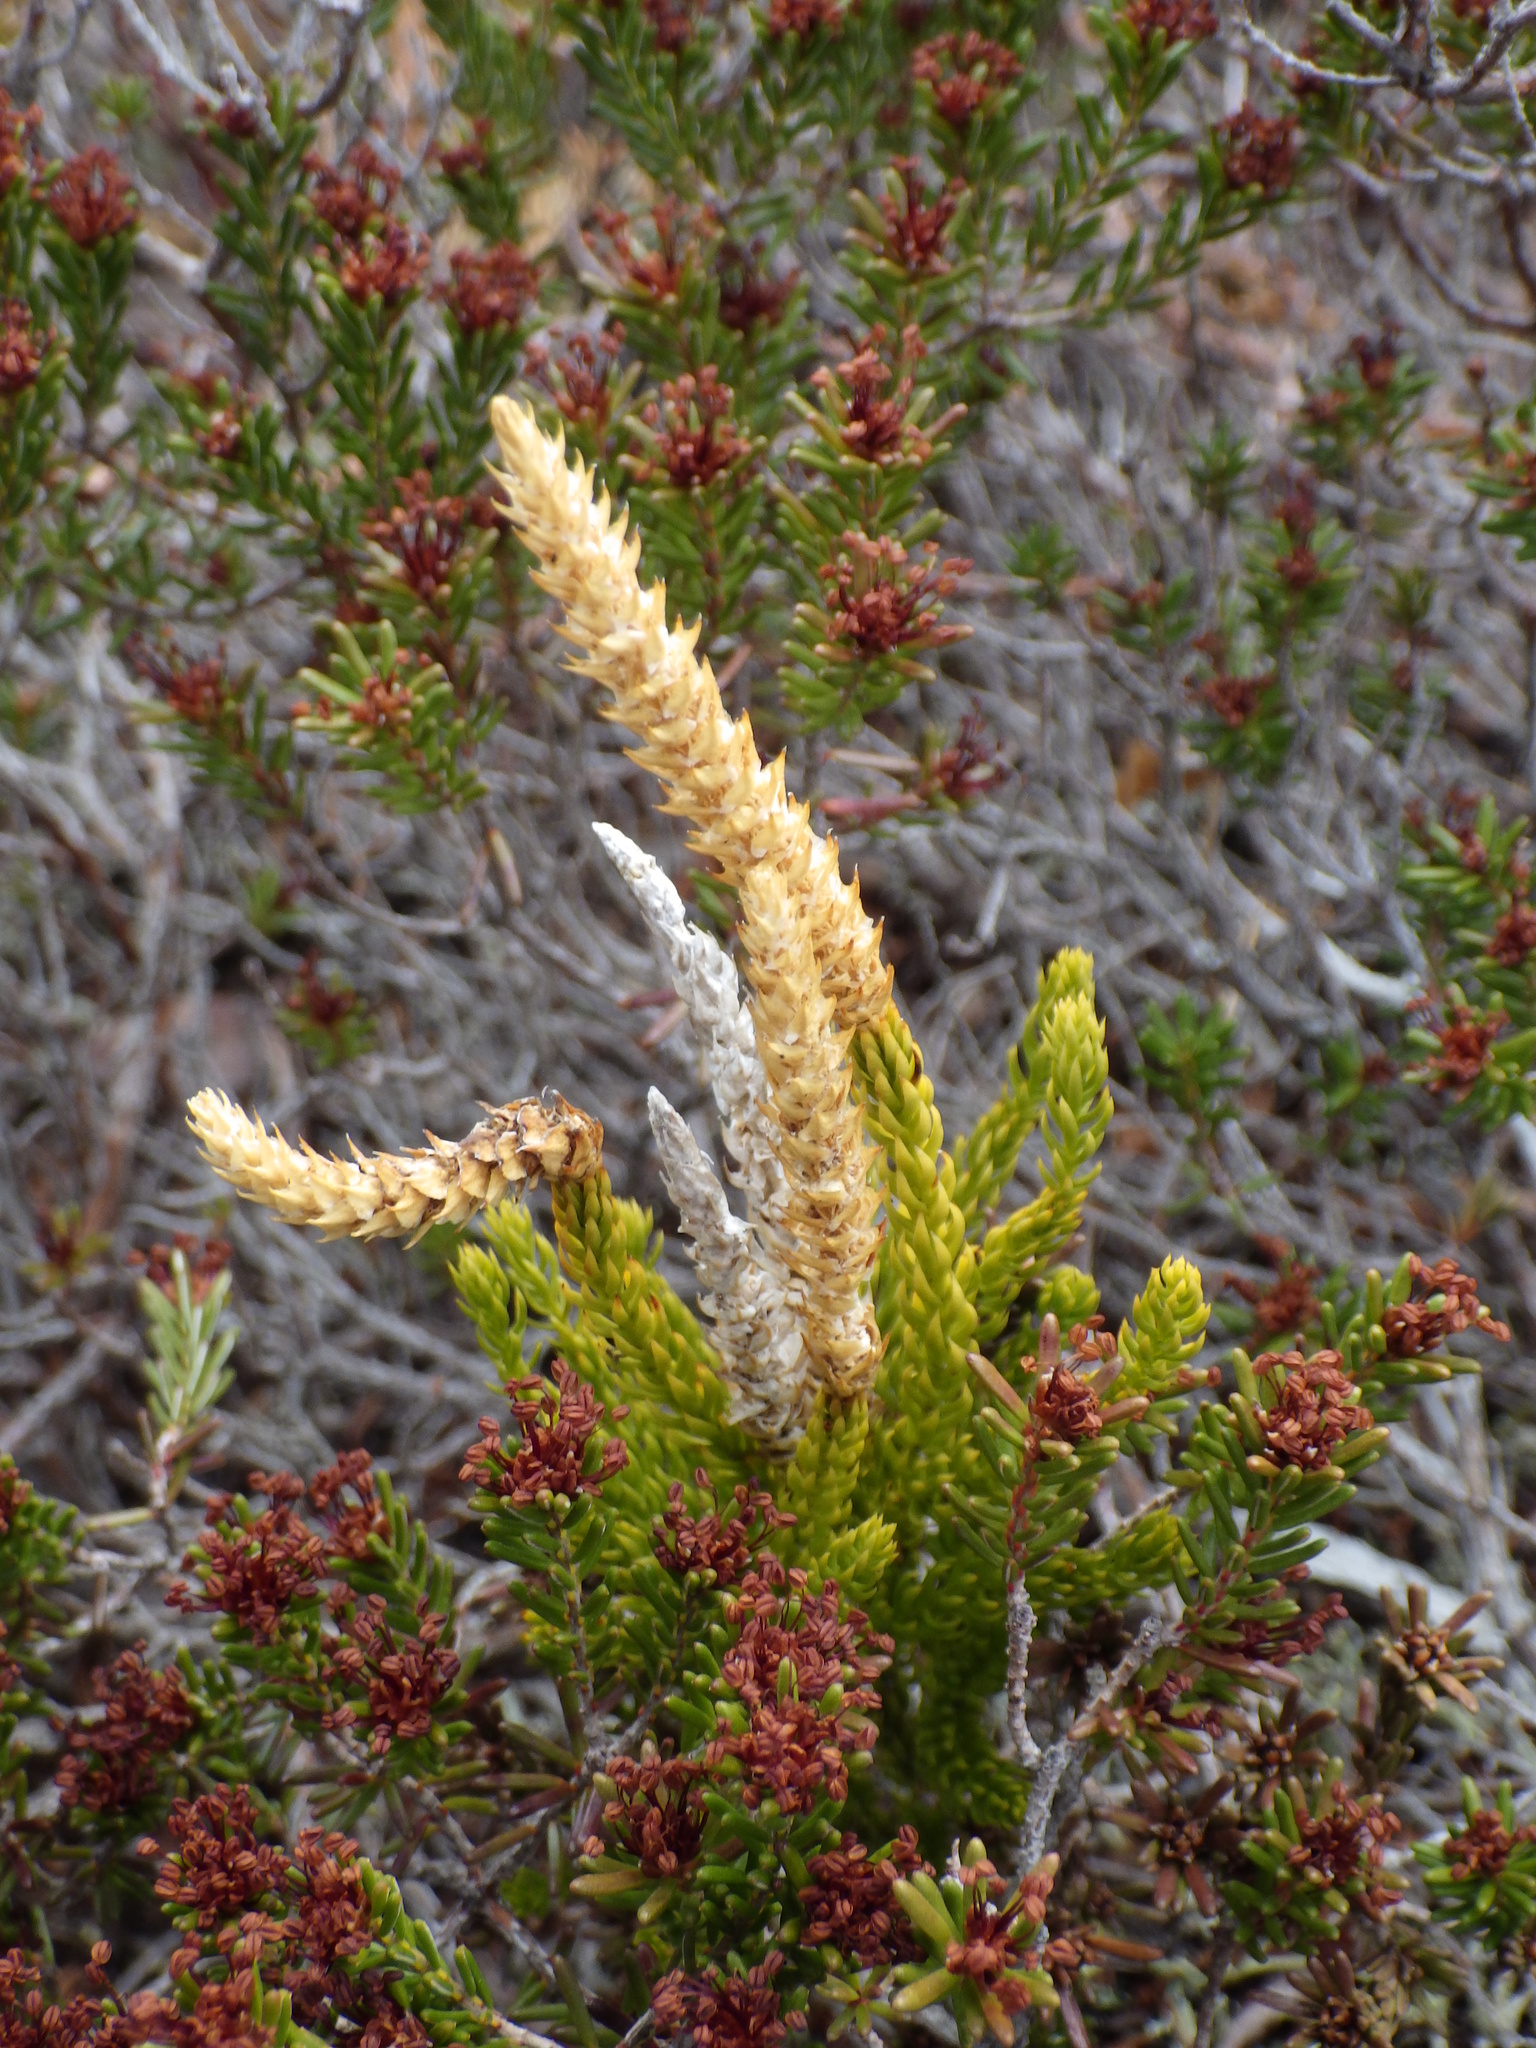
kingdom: Plantae
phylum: Tracheophyta
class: Lycopodiopsida
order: Lycopodiales
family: Lycopodiaceae
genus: Dendrolycopodium
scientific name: Dendrolycopodium hickeyi
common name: Hickey's clubmoss
